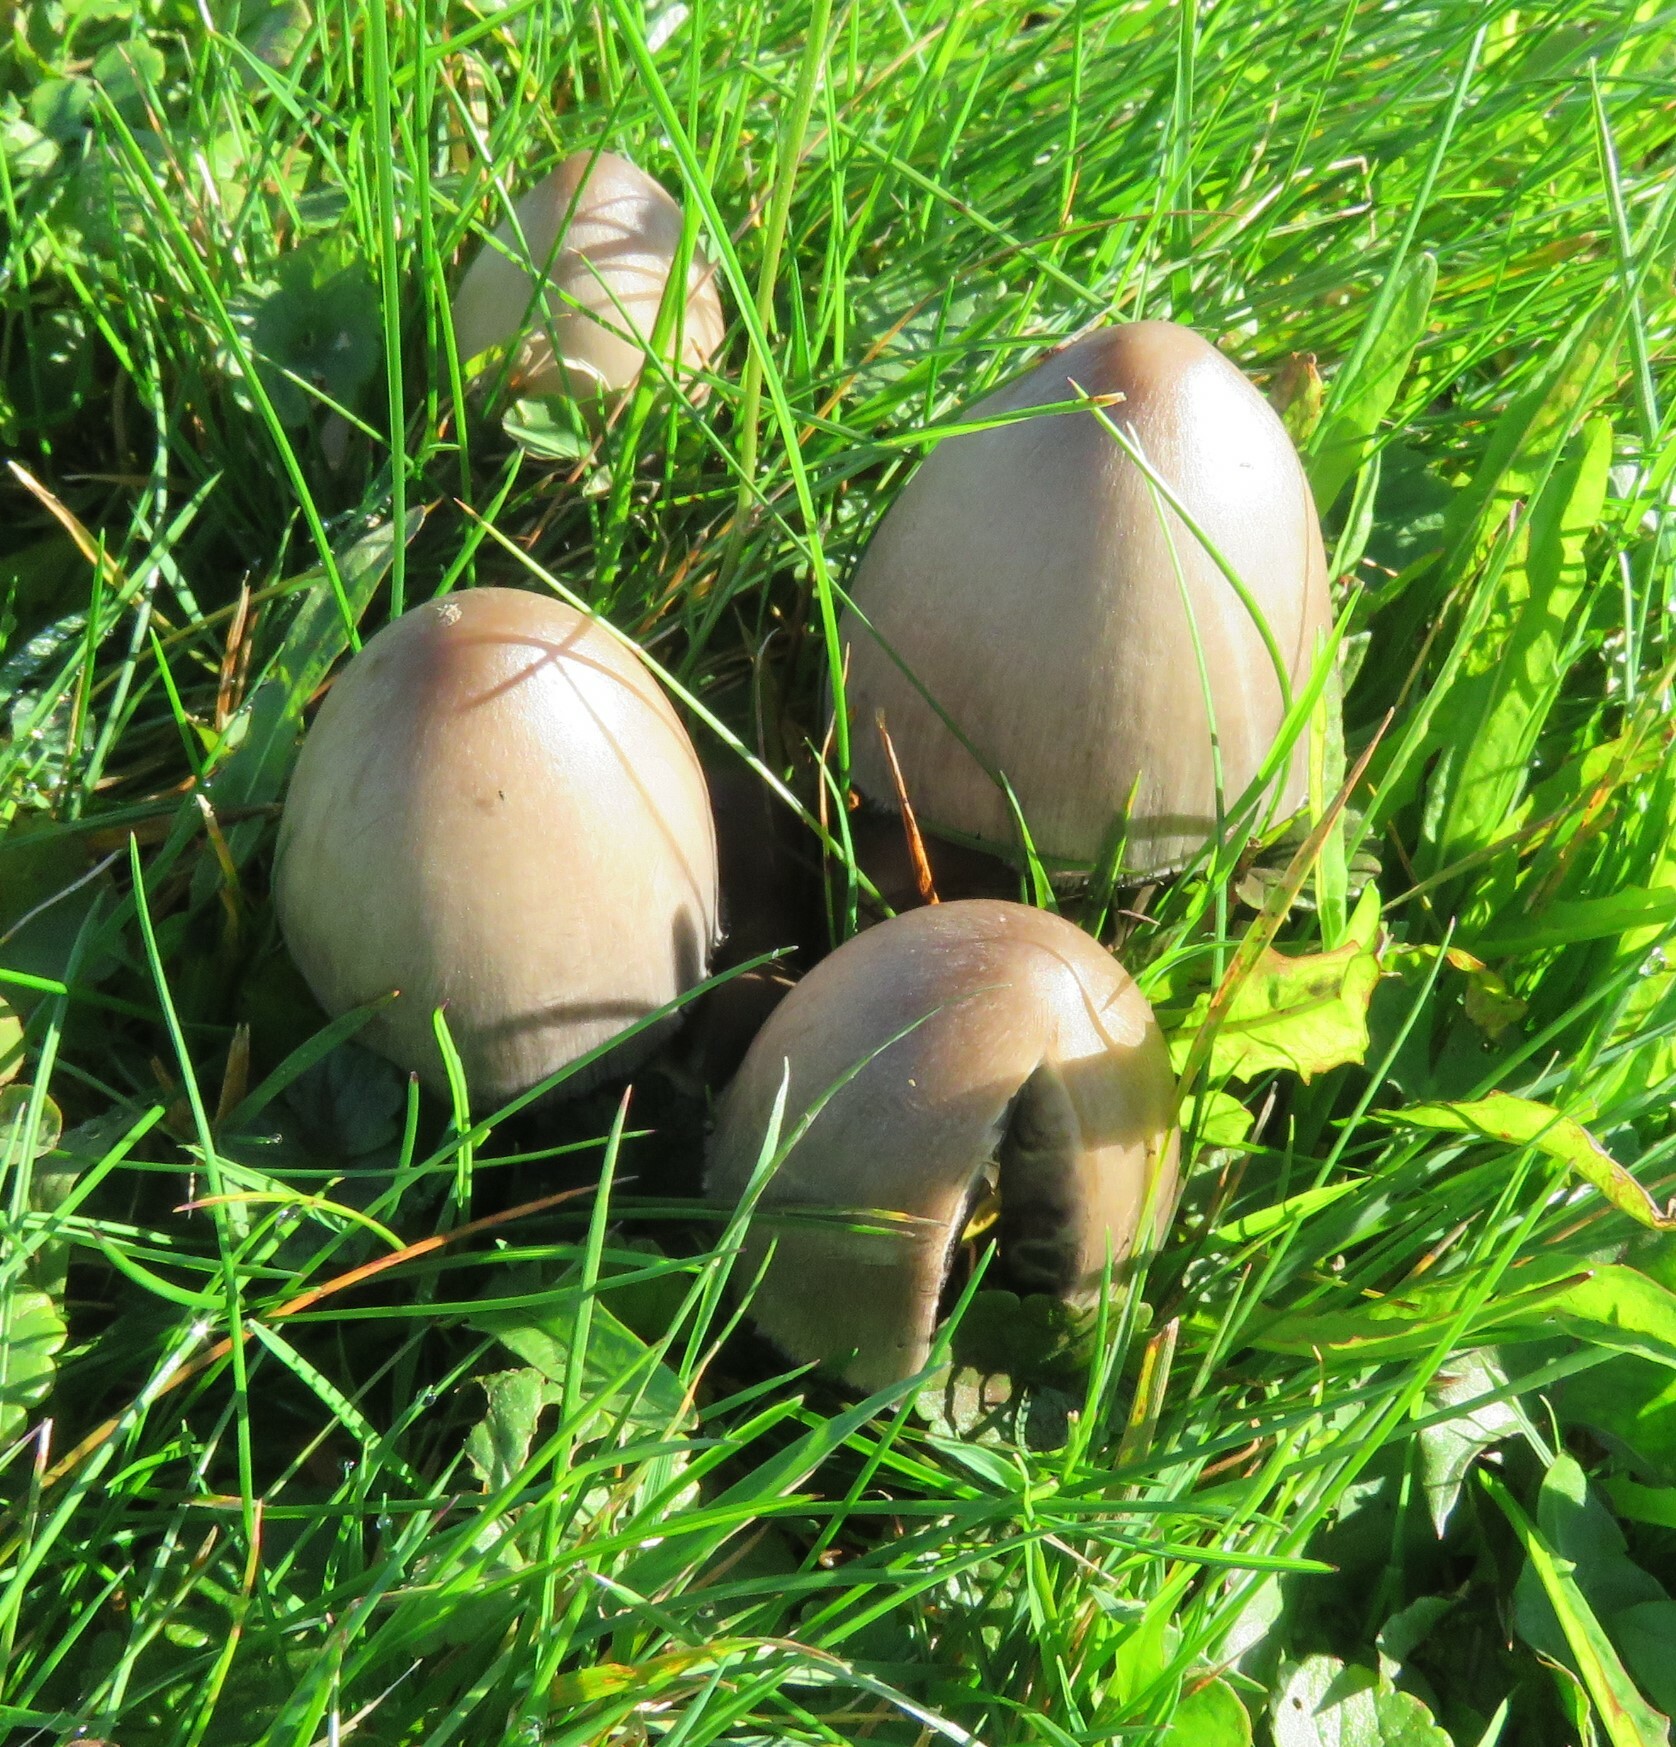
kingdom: Fungi
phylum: Basidiomycota
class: Agaricomycetes
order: Agaricales
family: Psathyrellaceae
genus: Coprinopsis
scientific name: Coprinopsis atramentaria
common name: Common ink-cap
